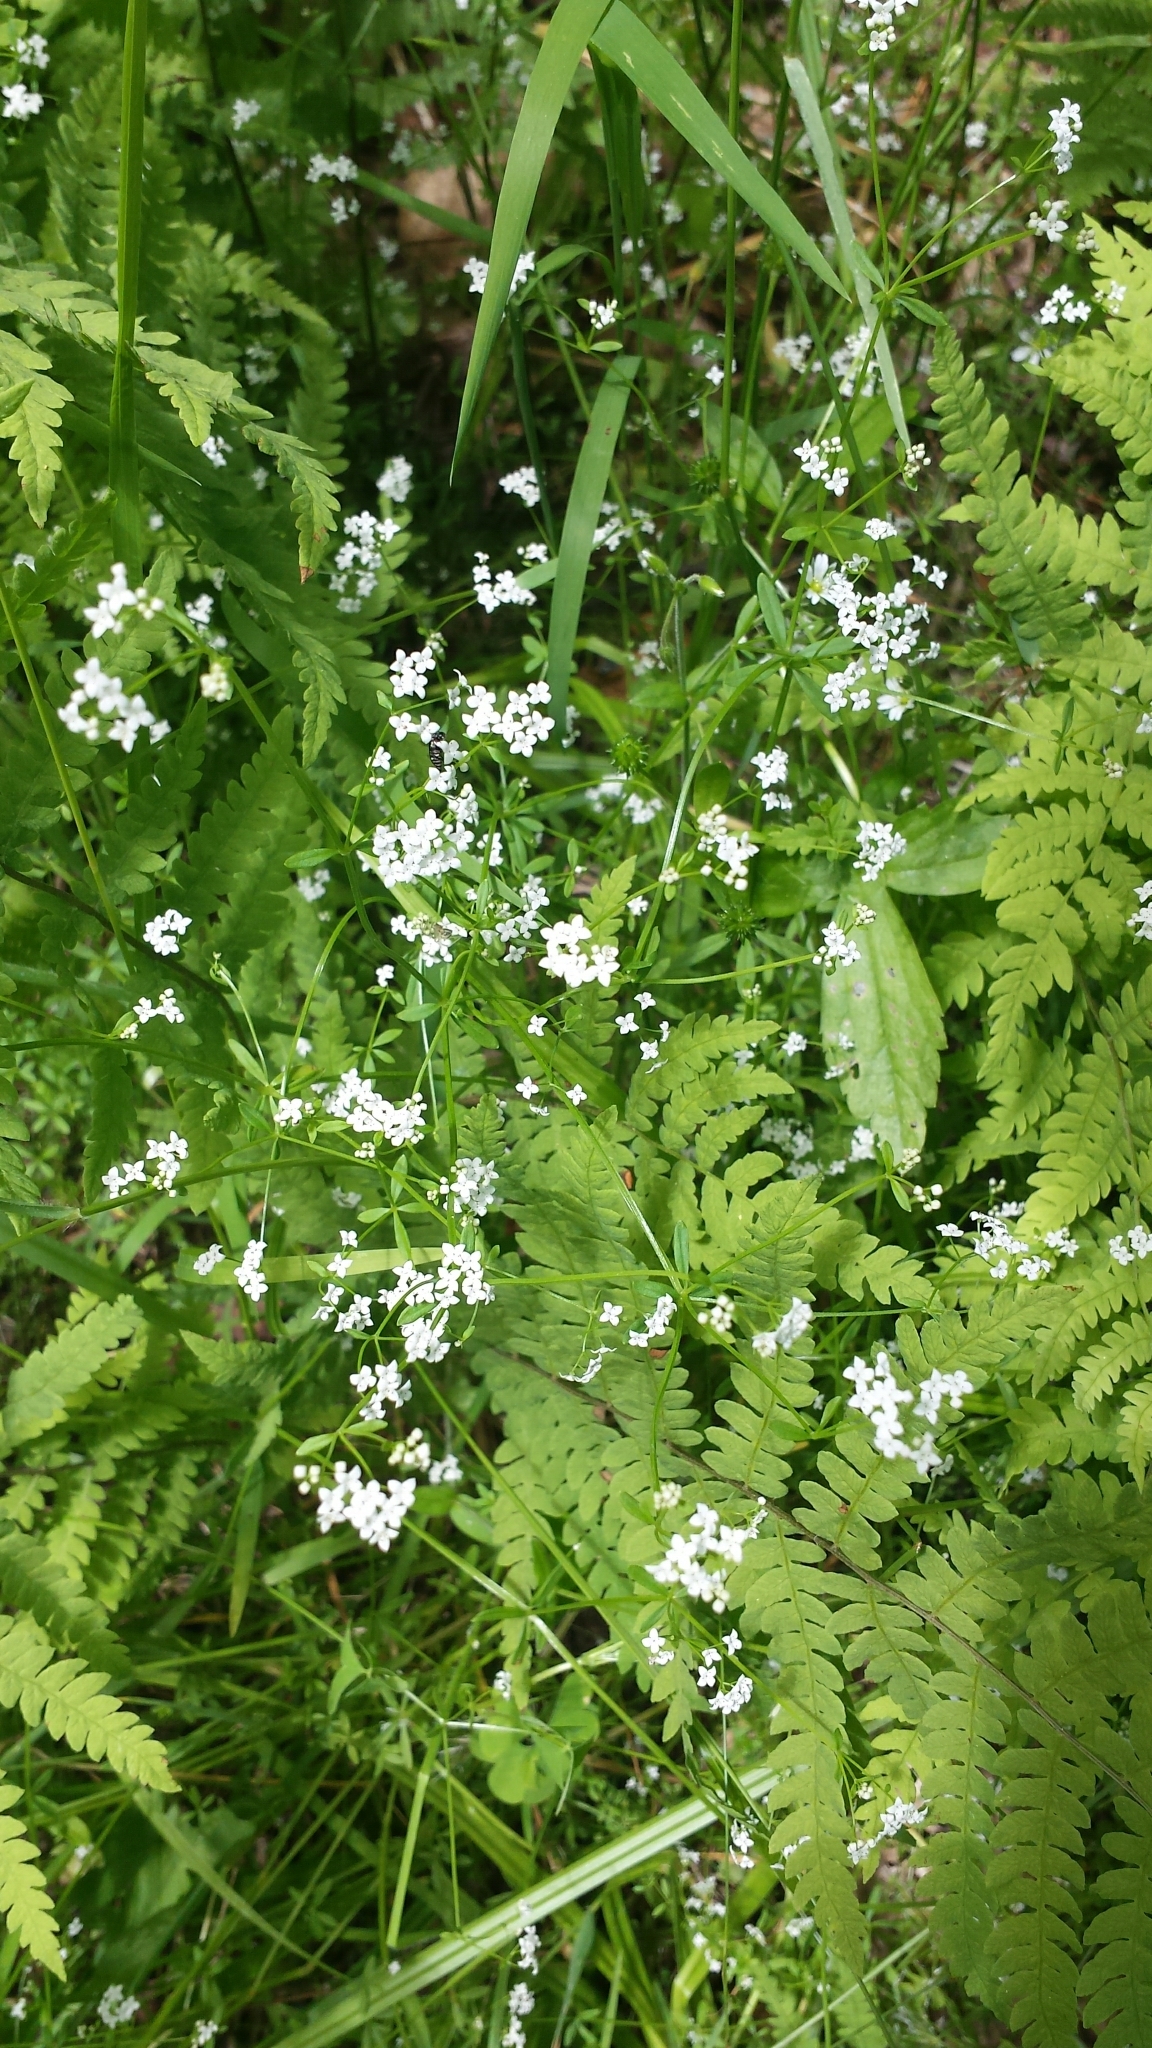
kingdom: Plantae
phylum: Tracheophyta
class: Magnoliopsida
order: Gentianales
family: Rubiaceae
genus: Galium
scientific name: Galium palustre
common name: Common marsh-bedstraw
